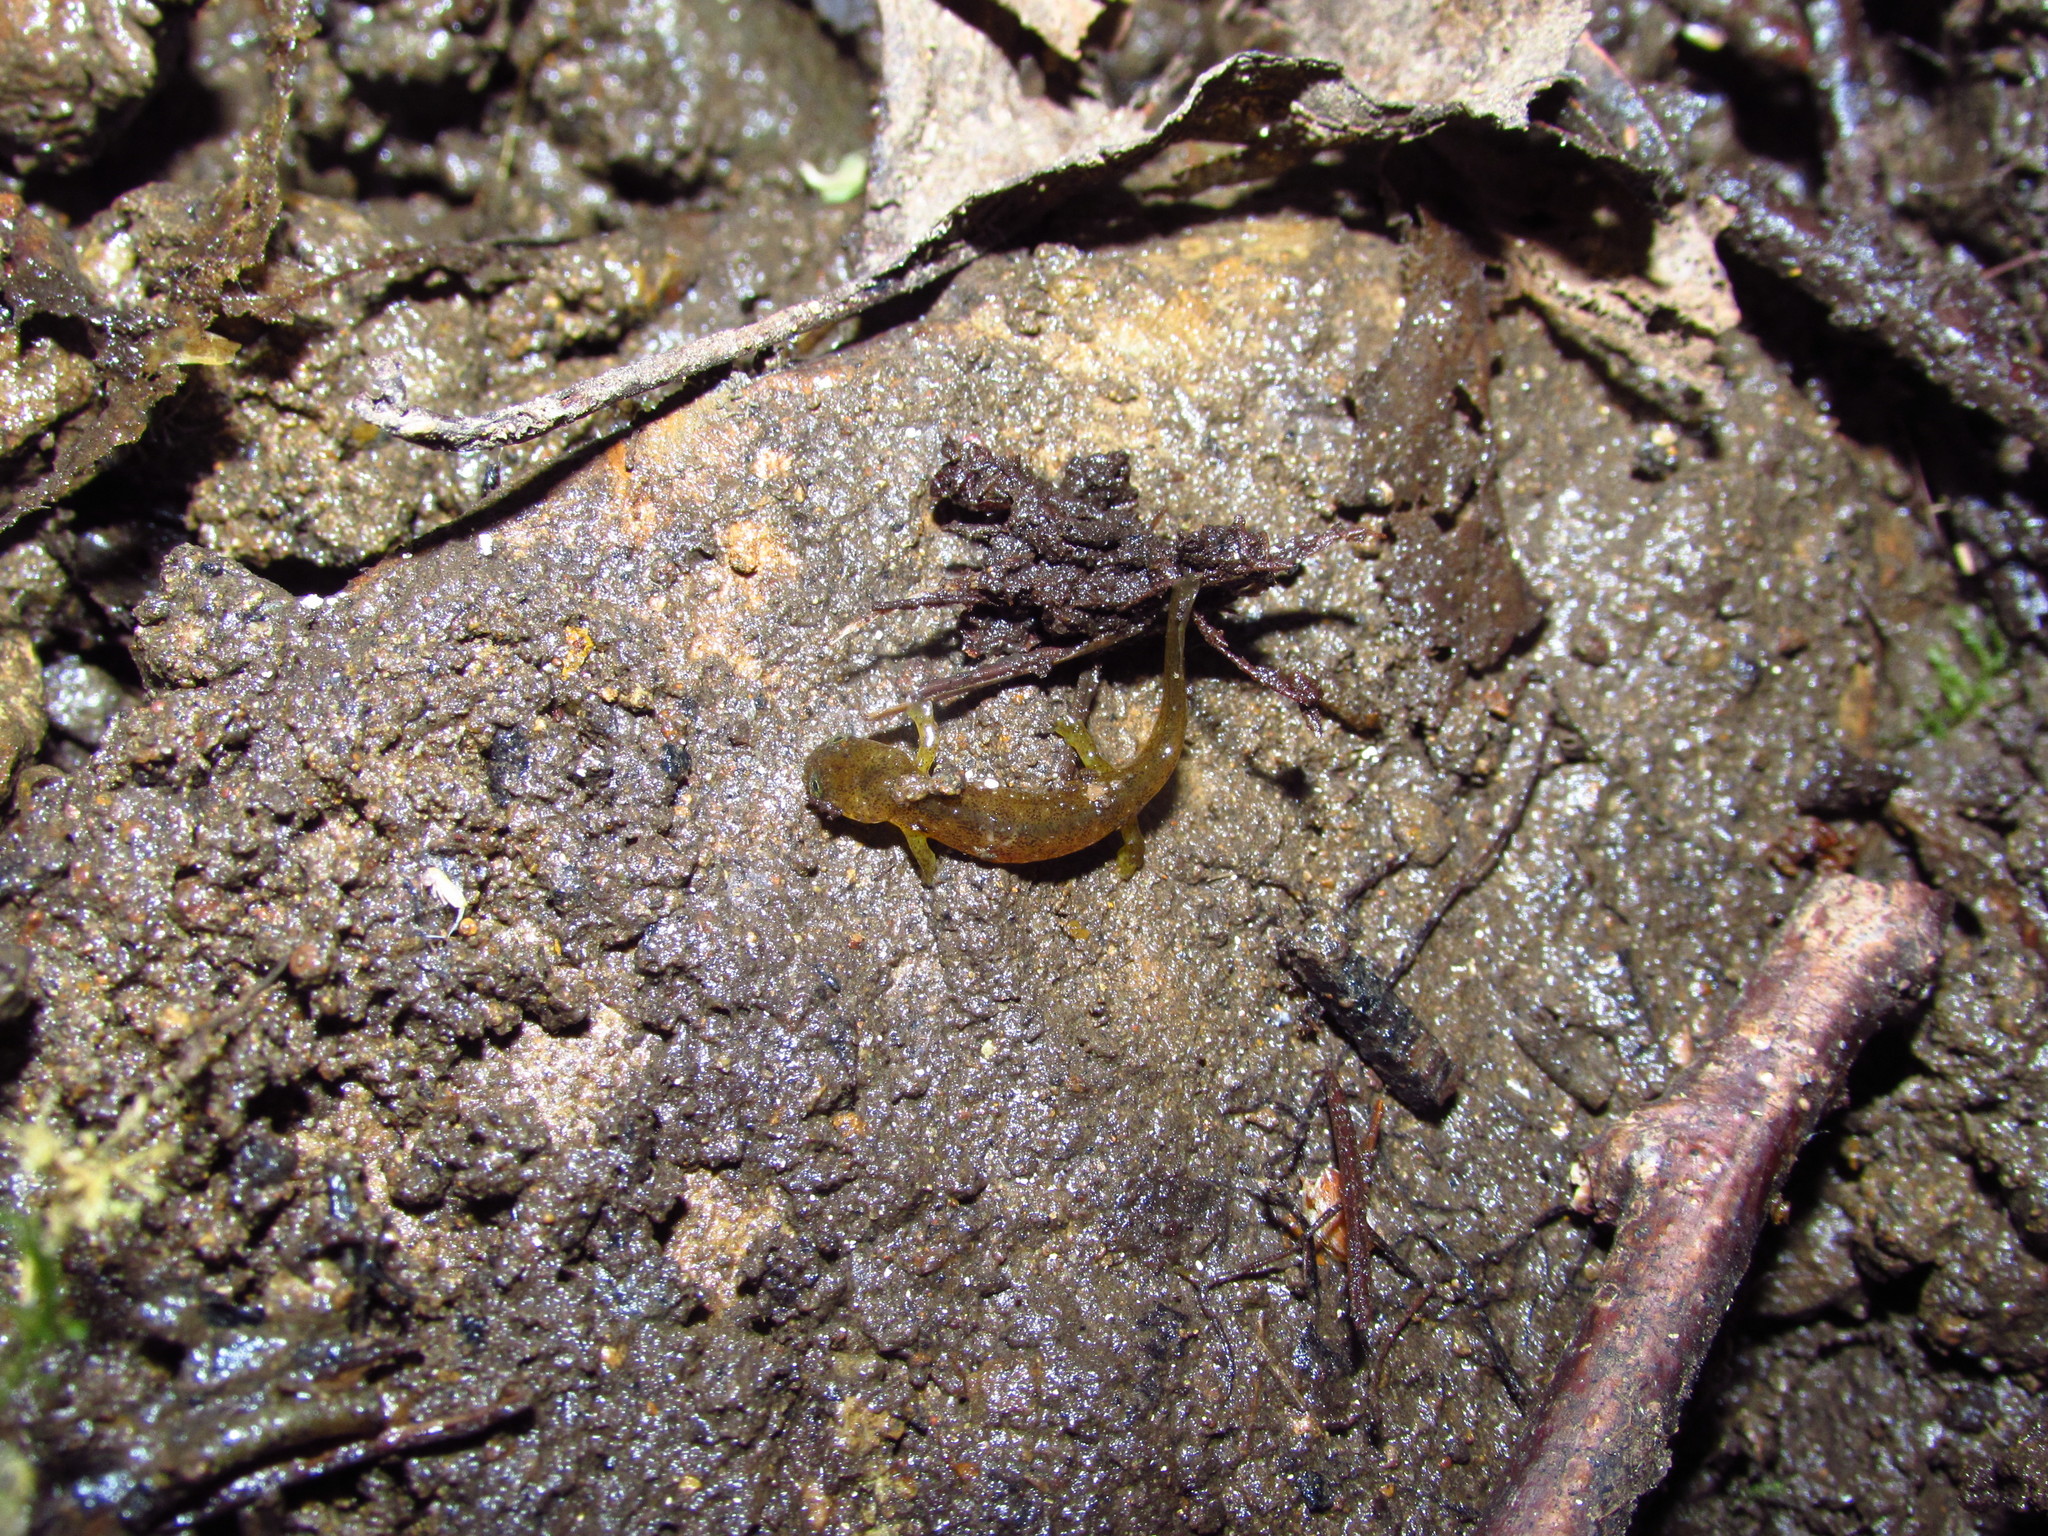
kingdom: Animalia
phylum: Chordata
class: Amphibia
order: Caudata
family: Rhyacotritonidae
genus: Rhyacotriton
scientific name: Rhyacotriton kezeri
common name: Columbia torrent salamander
